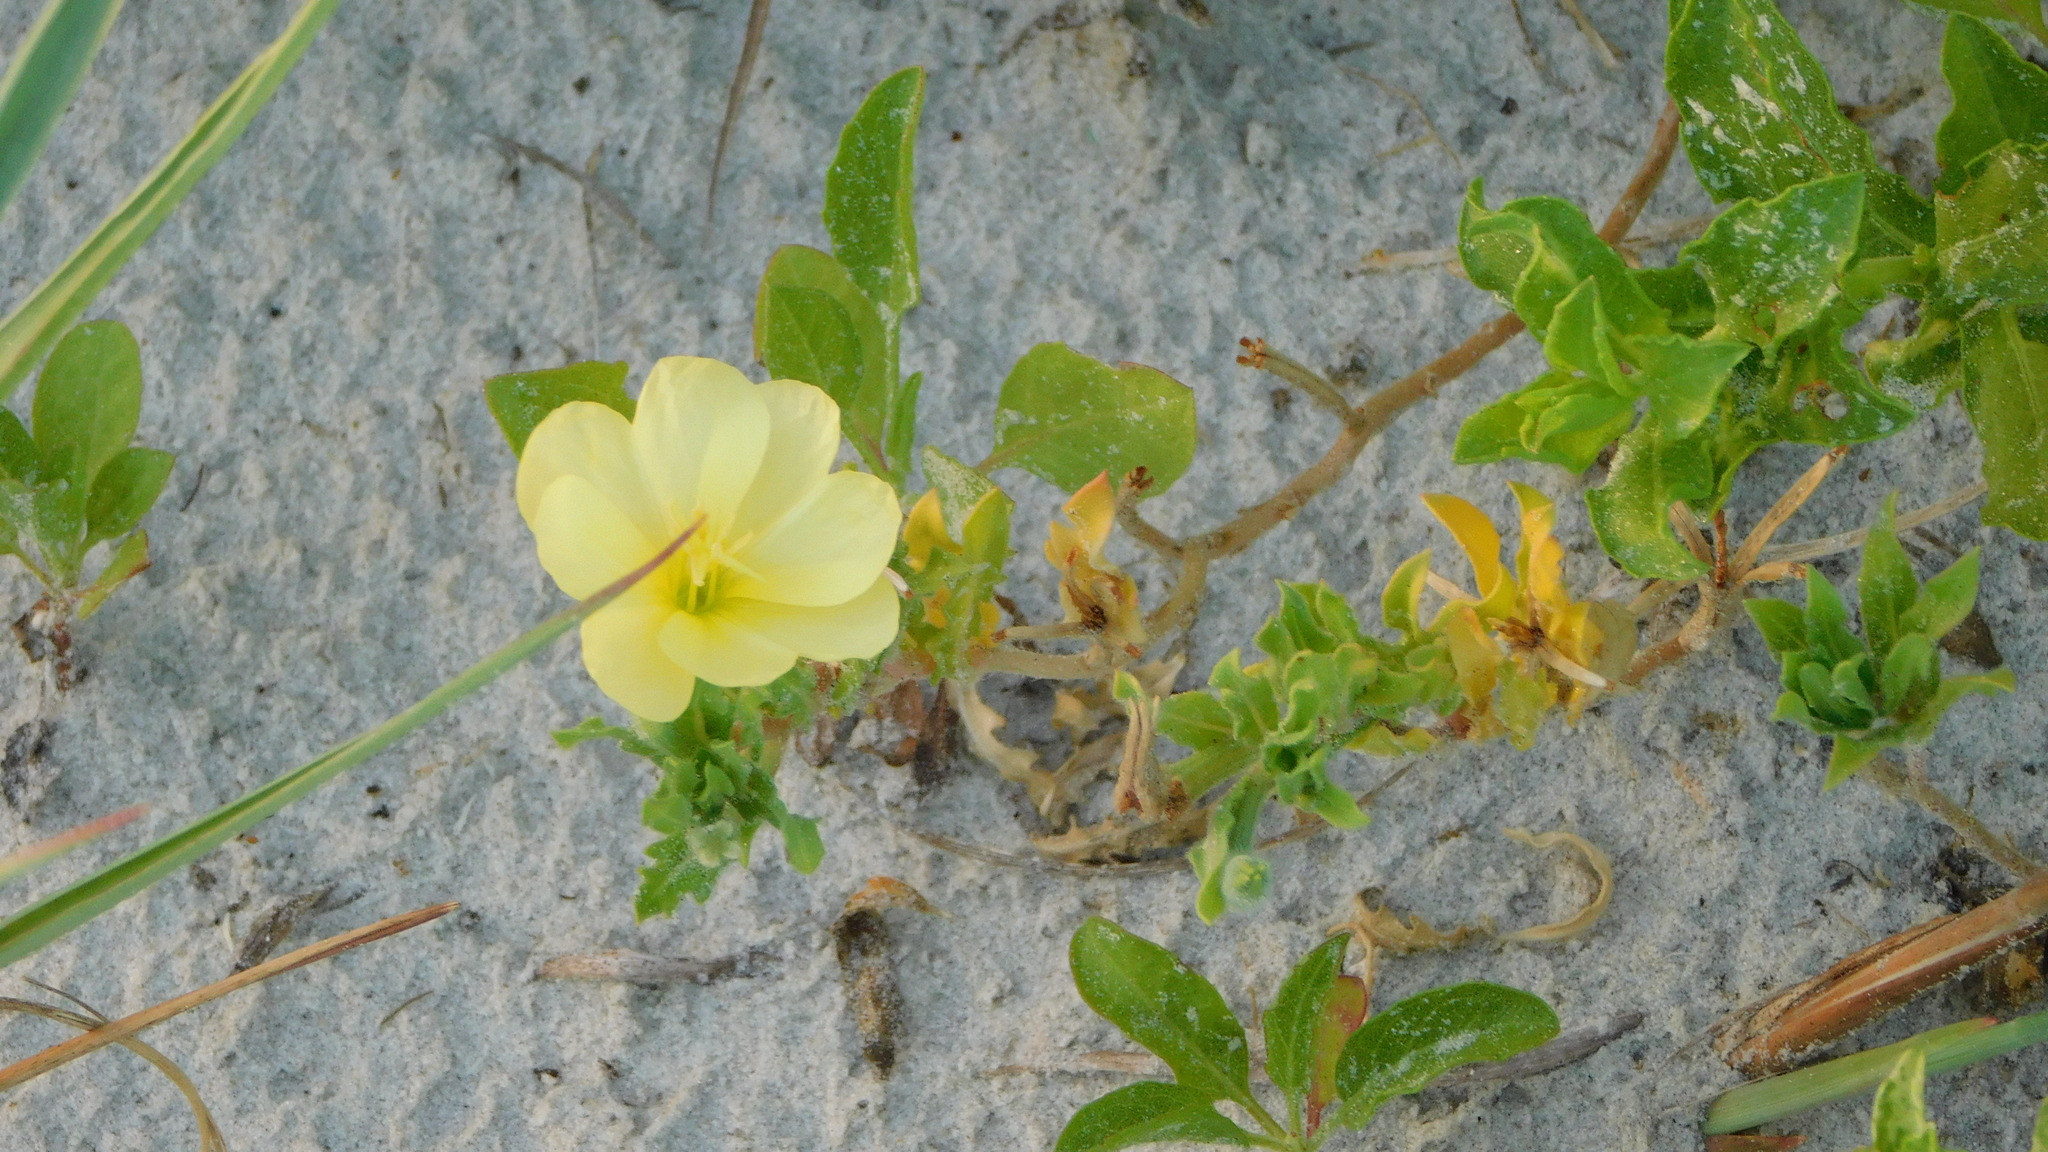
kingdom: Plantae
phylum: Tracheophyta
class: Magnoliopsida
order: Myrtales
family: Onagraceae
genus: Oenothera
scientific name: Oenothera humifusa
